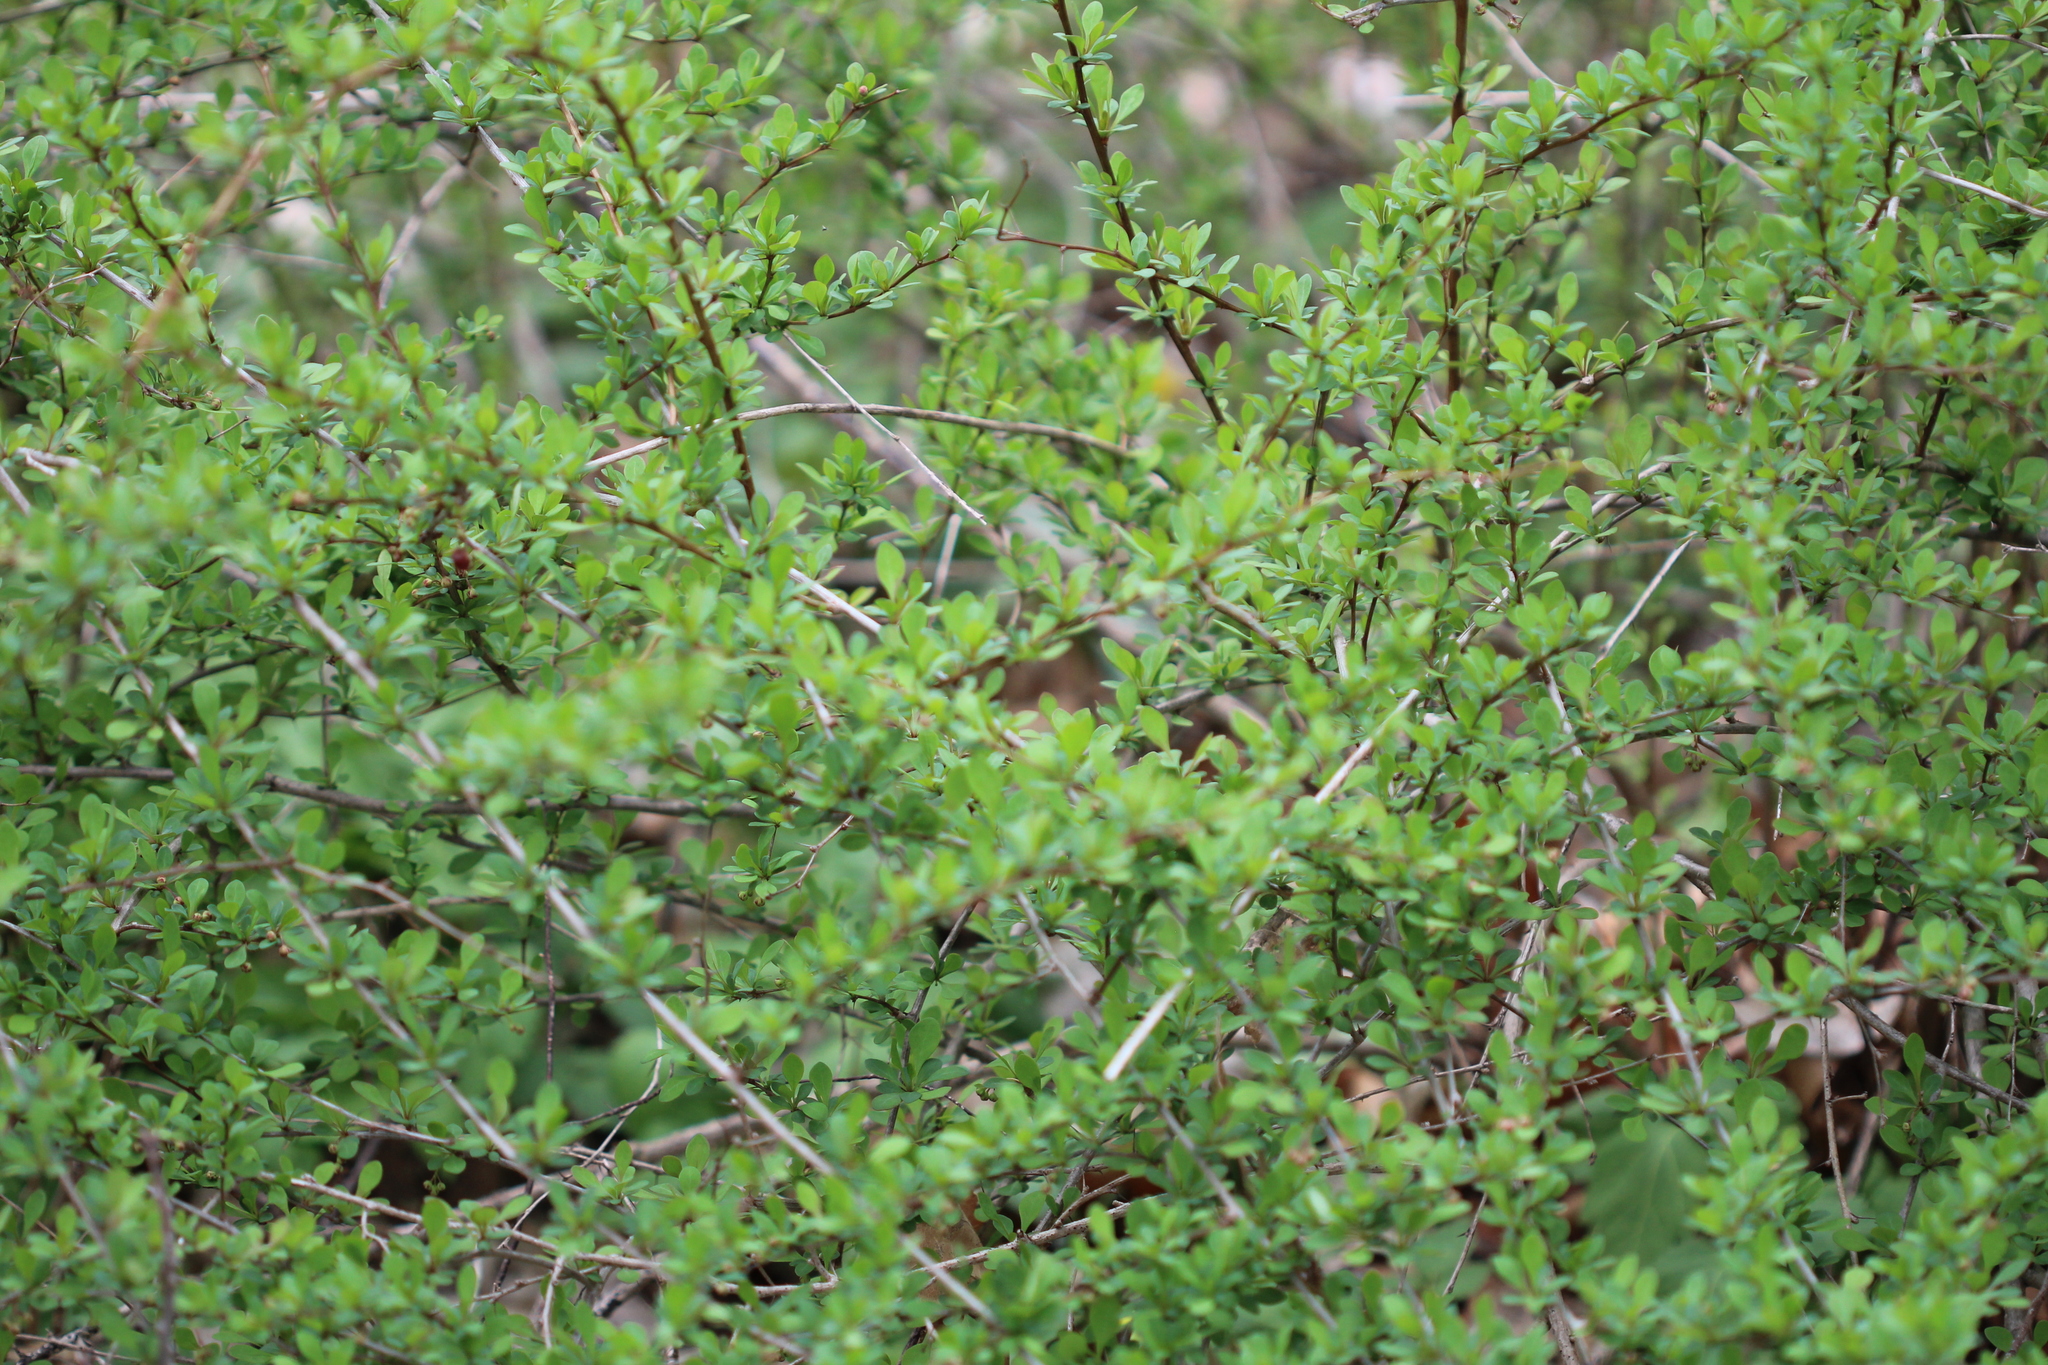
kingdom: Plantae
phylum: Tracheophyta
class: Magnoliopsida
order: Ranunculales
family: Berberidaceae
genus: Berberis
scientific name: Berberis thunbergii
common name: Japanese barberry
